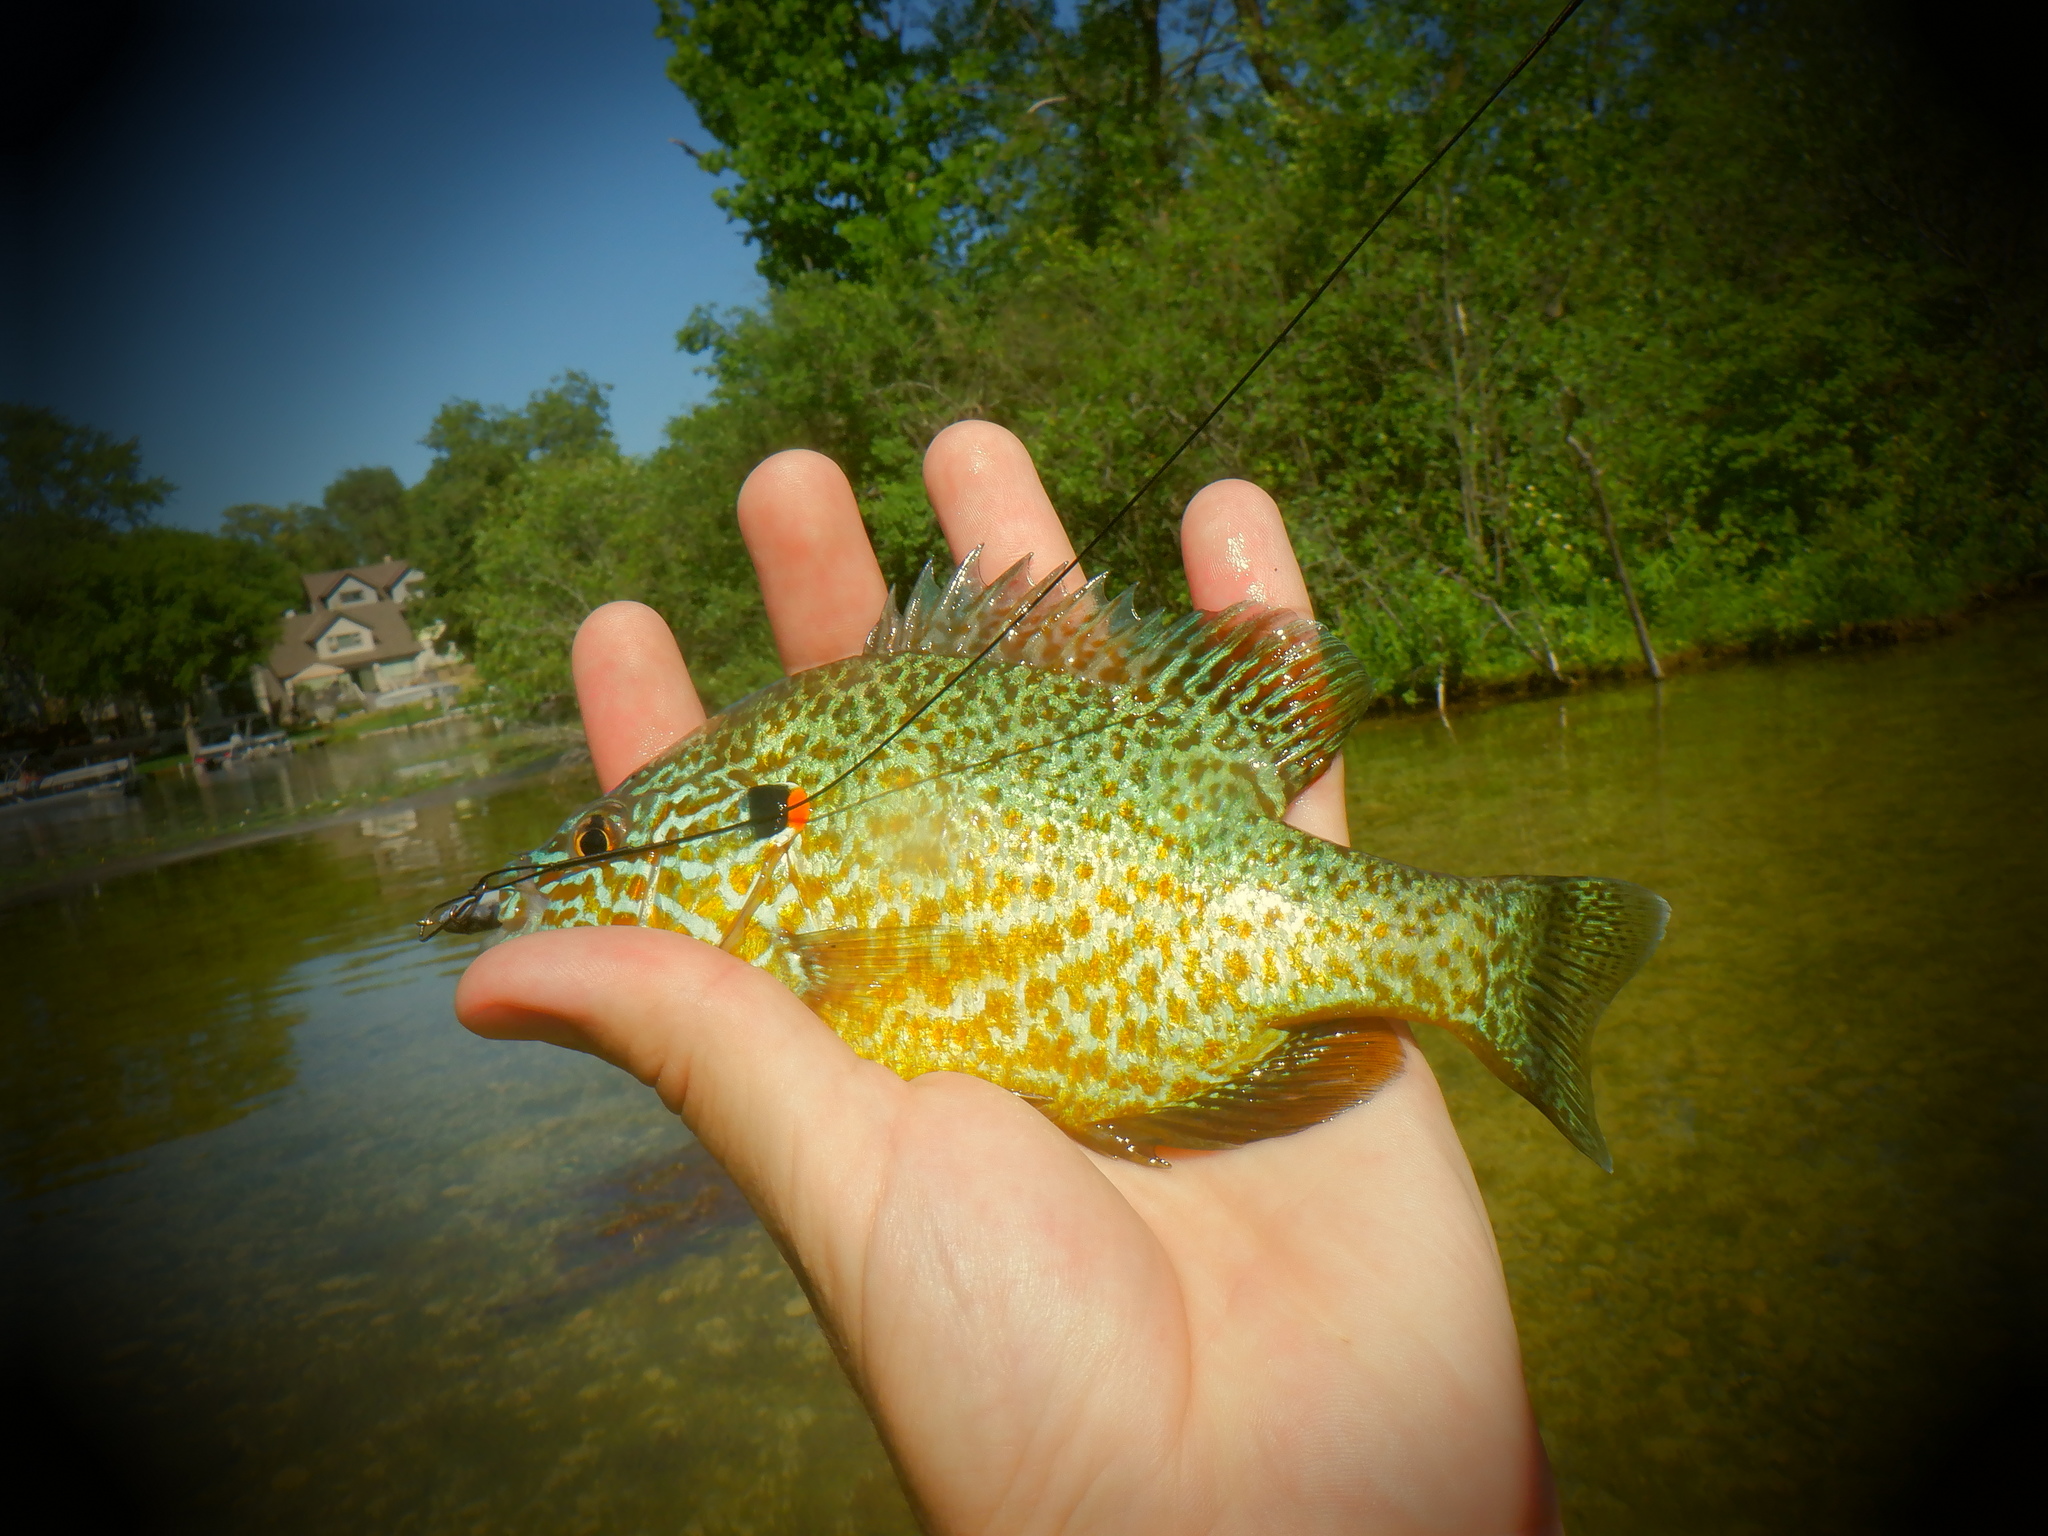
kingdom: Animalia
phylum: Chordata
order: Perciformes
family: Centrarchidae
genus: Lepomis
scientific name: Lepomis gibbosus
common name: Pumpkinseed
